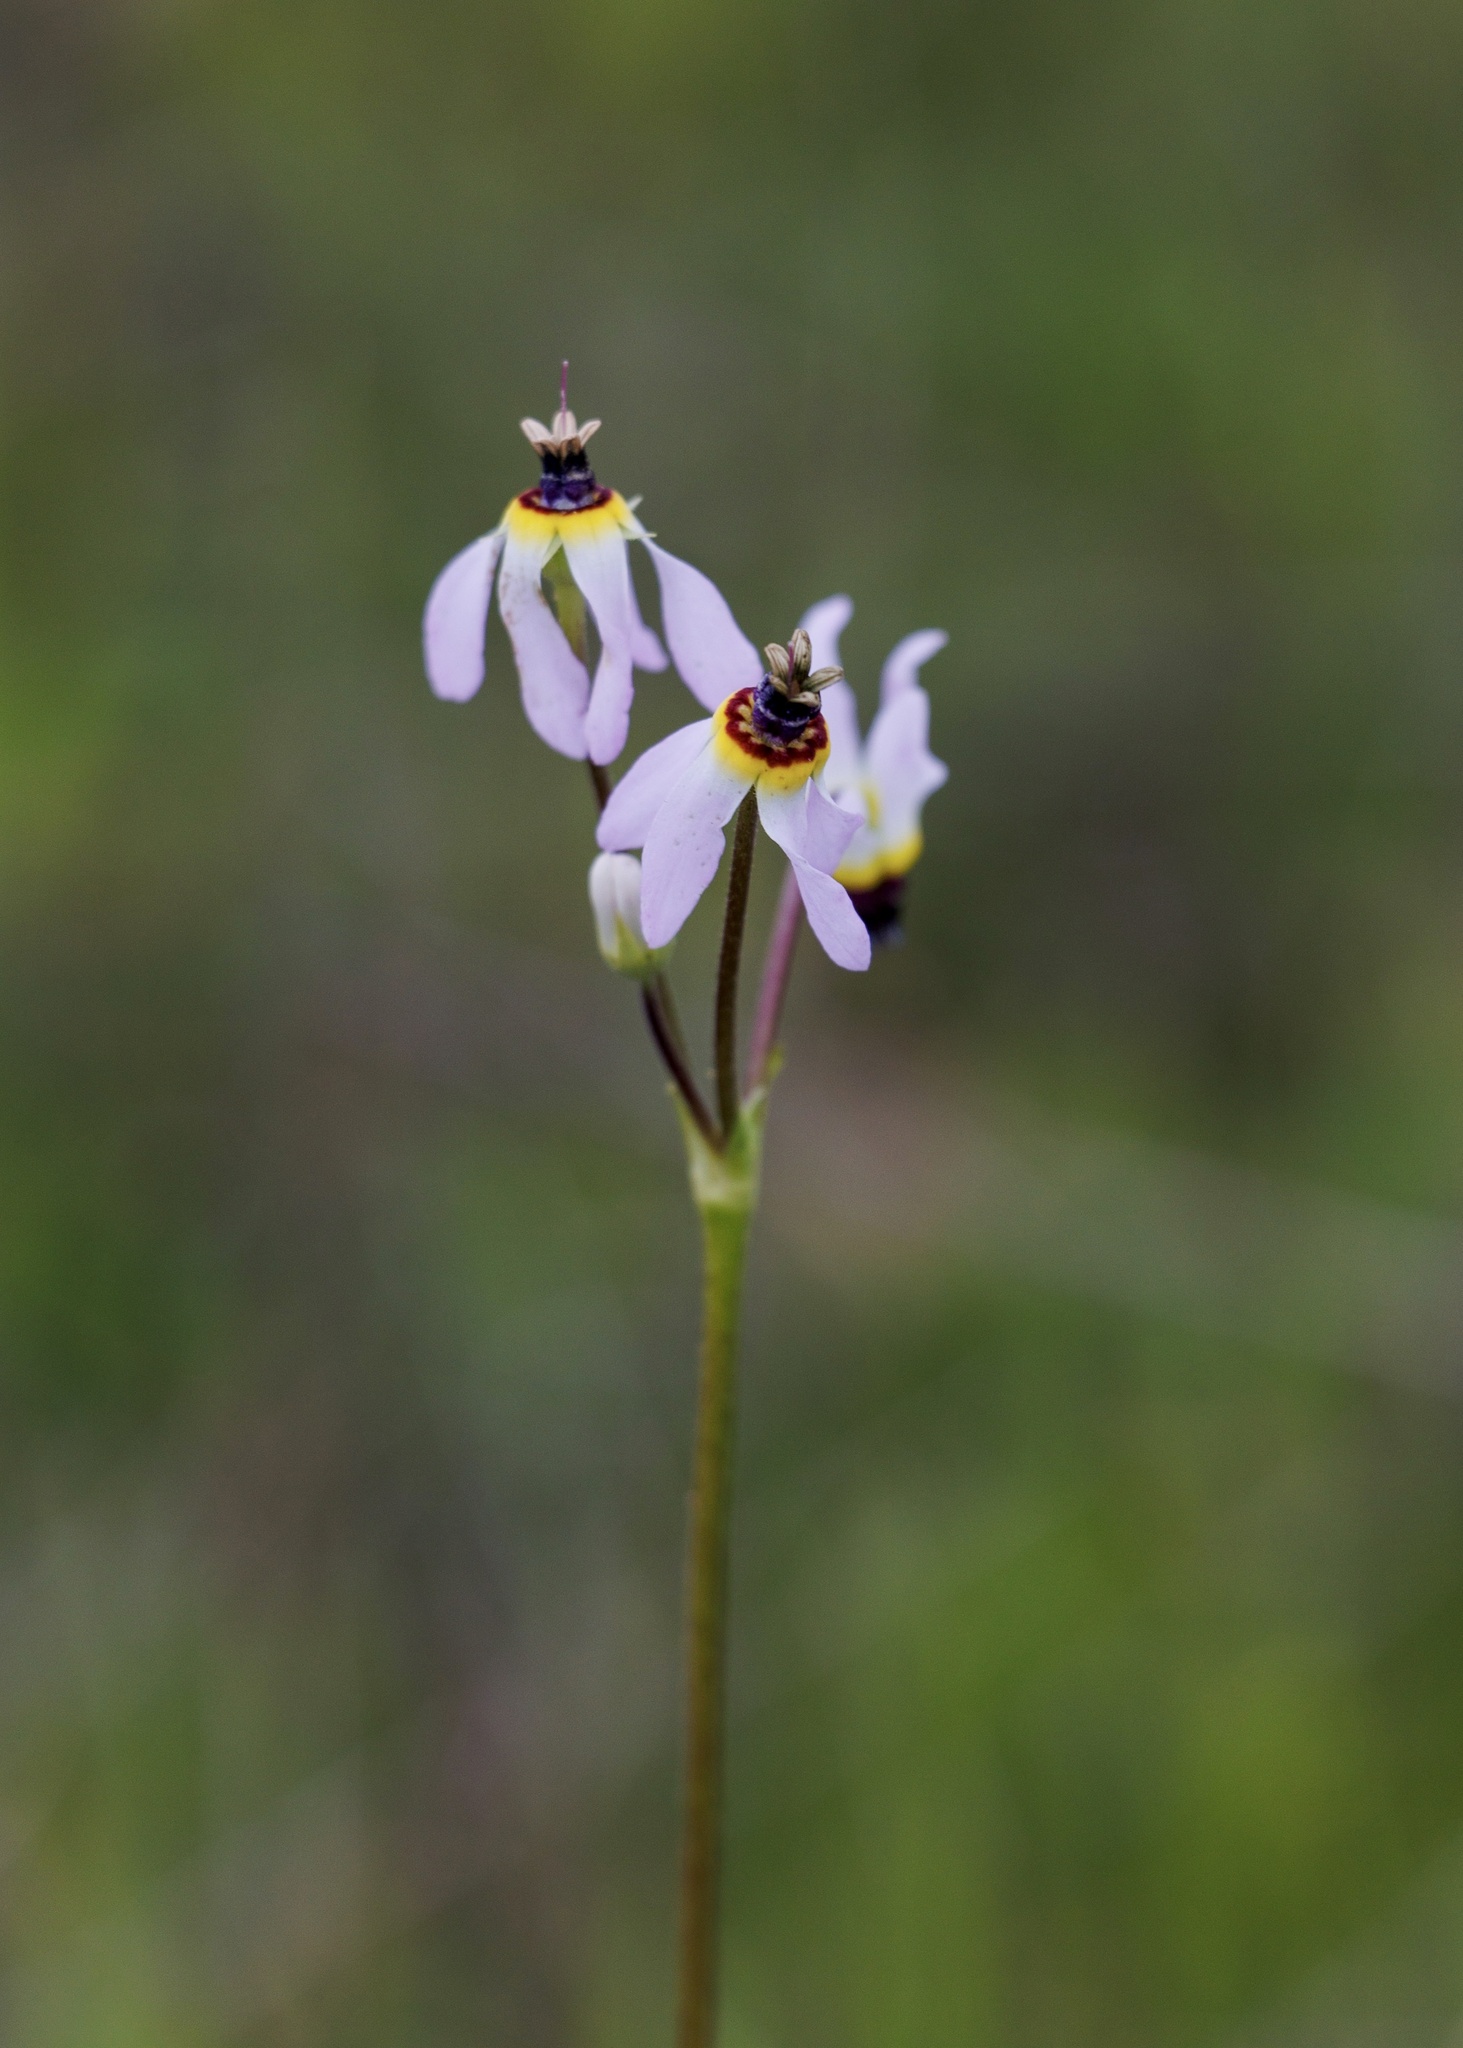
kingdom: Plantae
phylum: Tracheophyta
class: Magnoliopsida
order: Ericales
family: Primulaceae
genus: Dodecatheon
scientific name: Dodecatheon clevelandii
